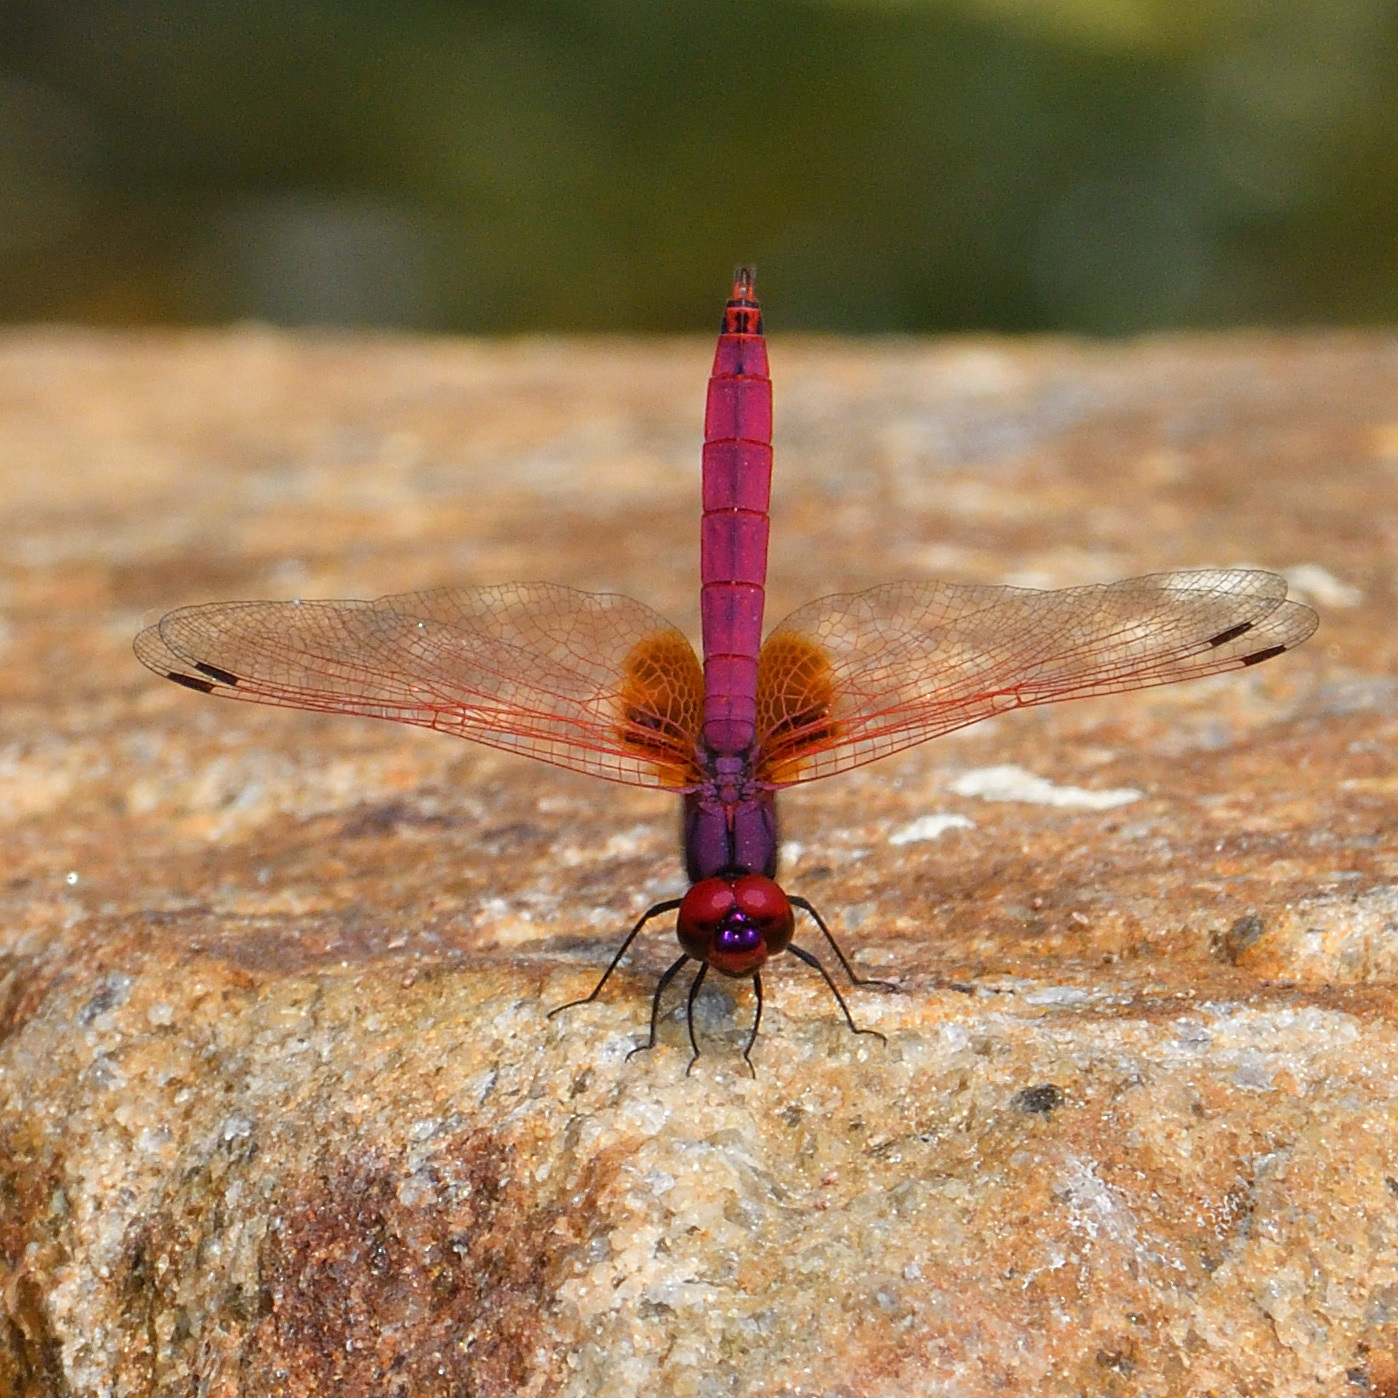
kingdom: Animalia
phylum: Arthropoda
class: Insecta
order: Odonata
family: Libellulidae
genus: Trithemis
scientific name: Trithemis aurora
